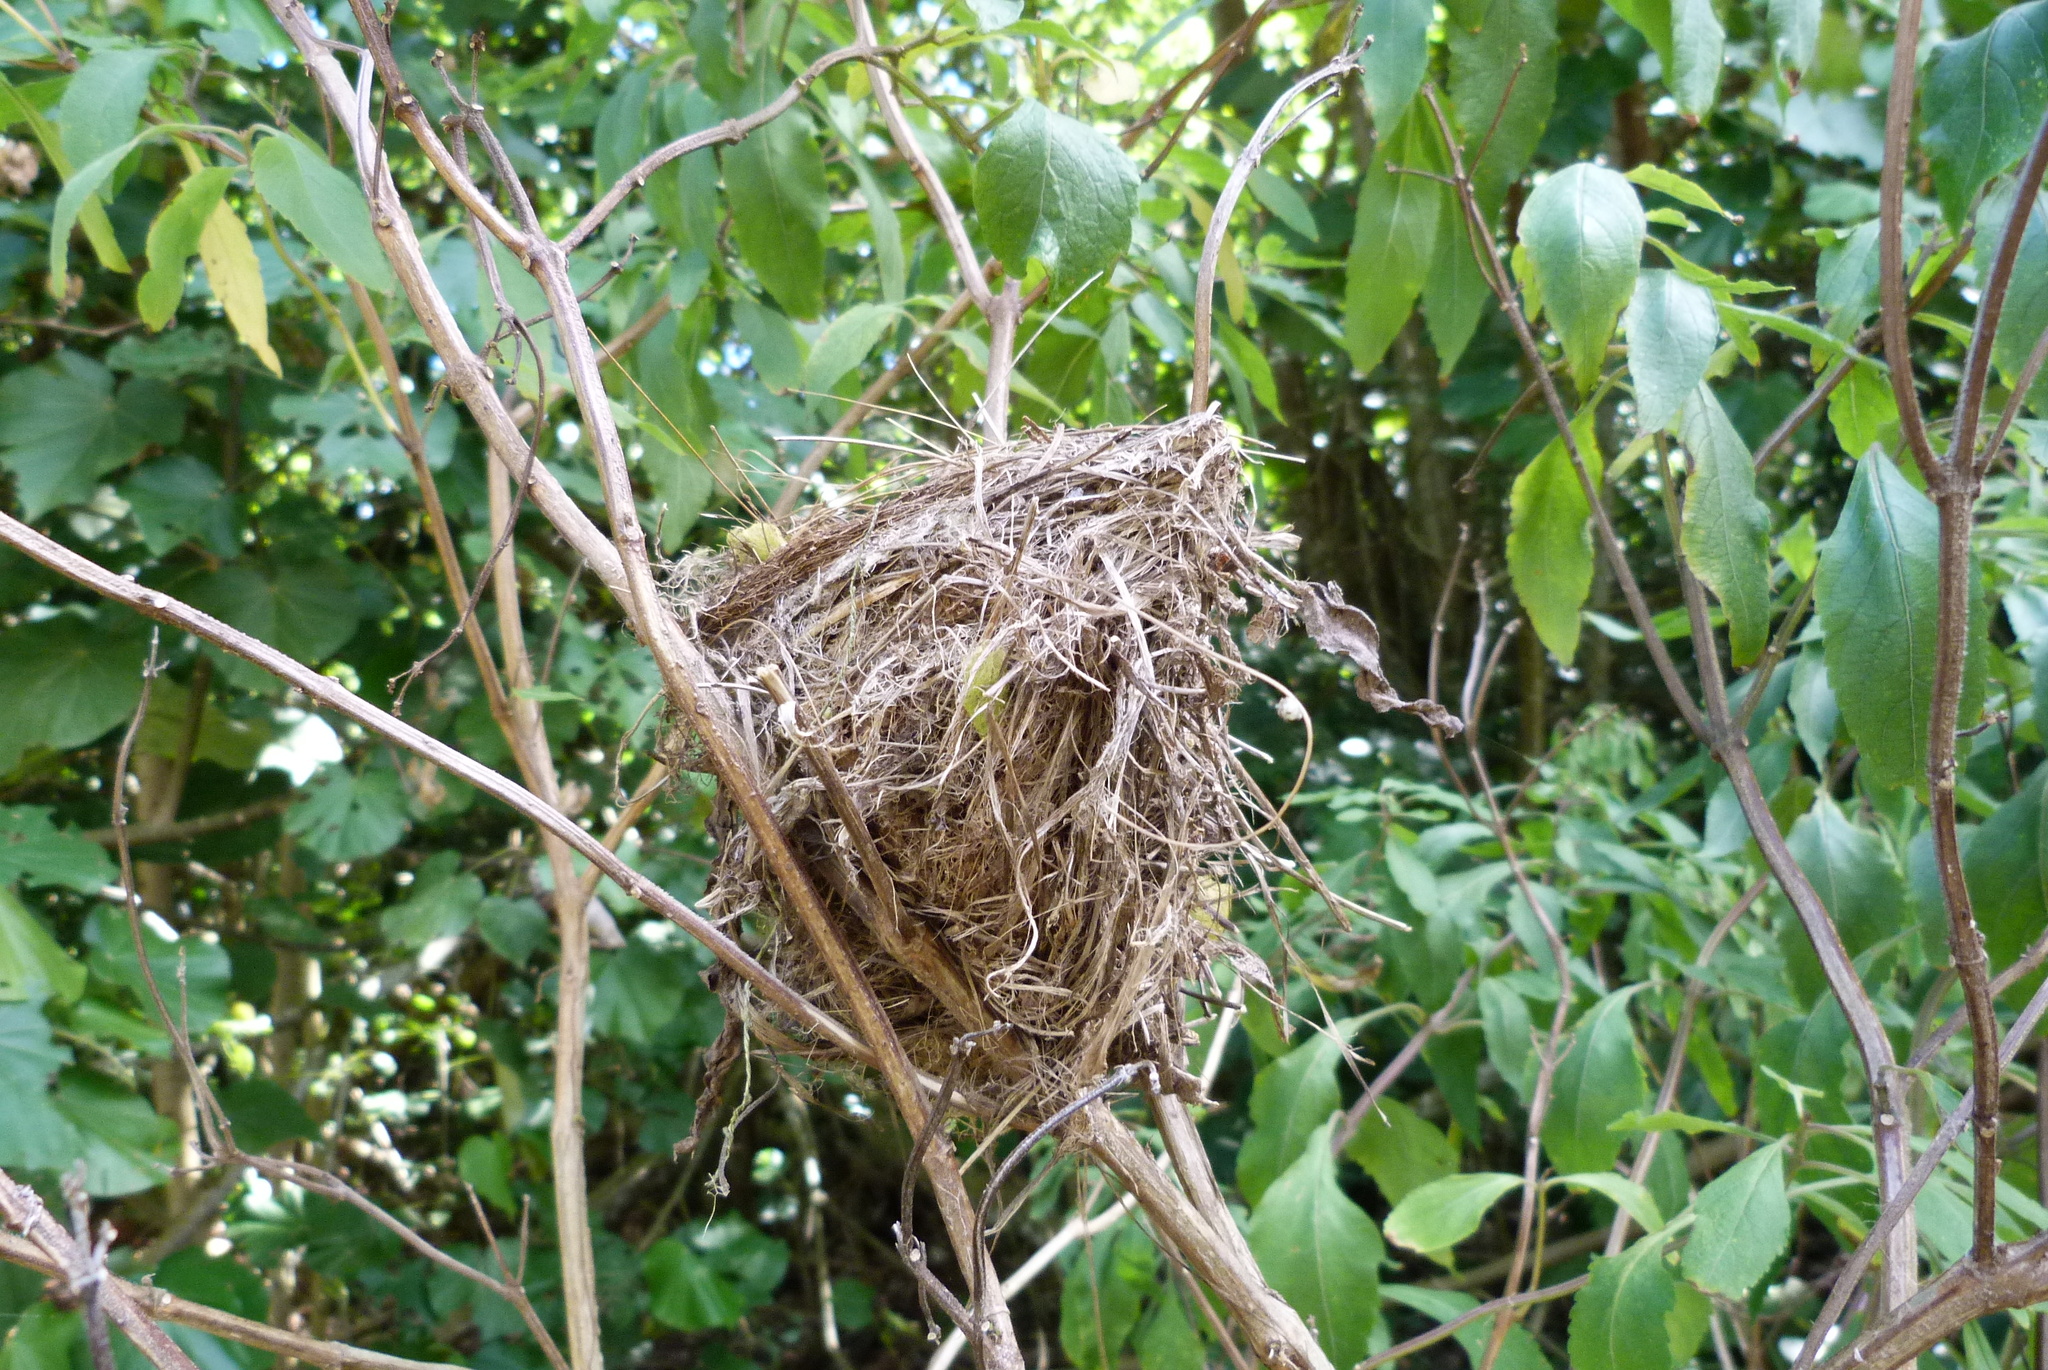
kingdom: Animalia
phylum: Chordata
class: Aves
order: Passeriformes
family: Acrocephalidae
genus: Acrocephalus
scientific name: Acrocephalus kerearako
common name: Cook reed warbler
